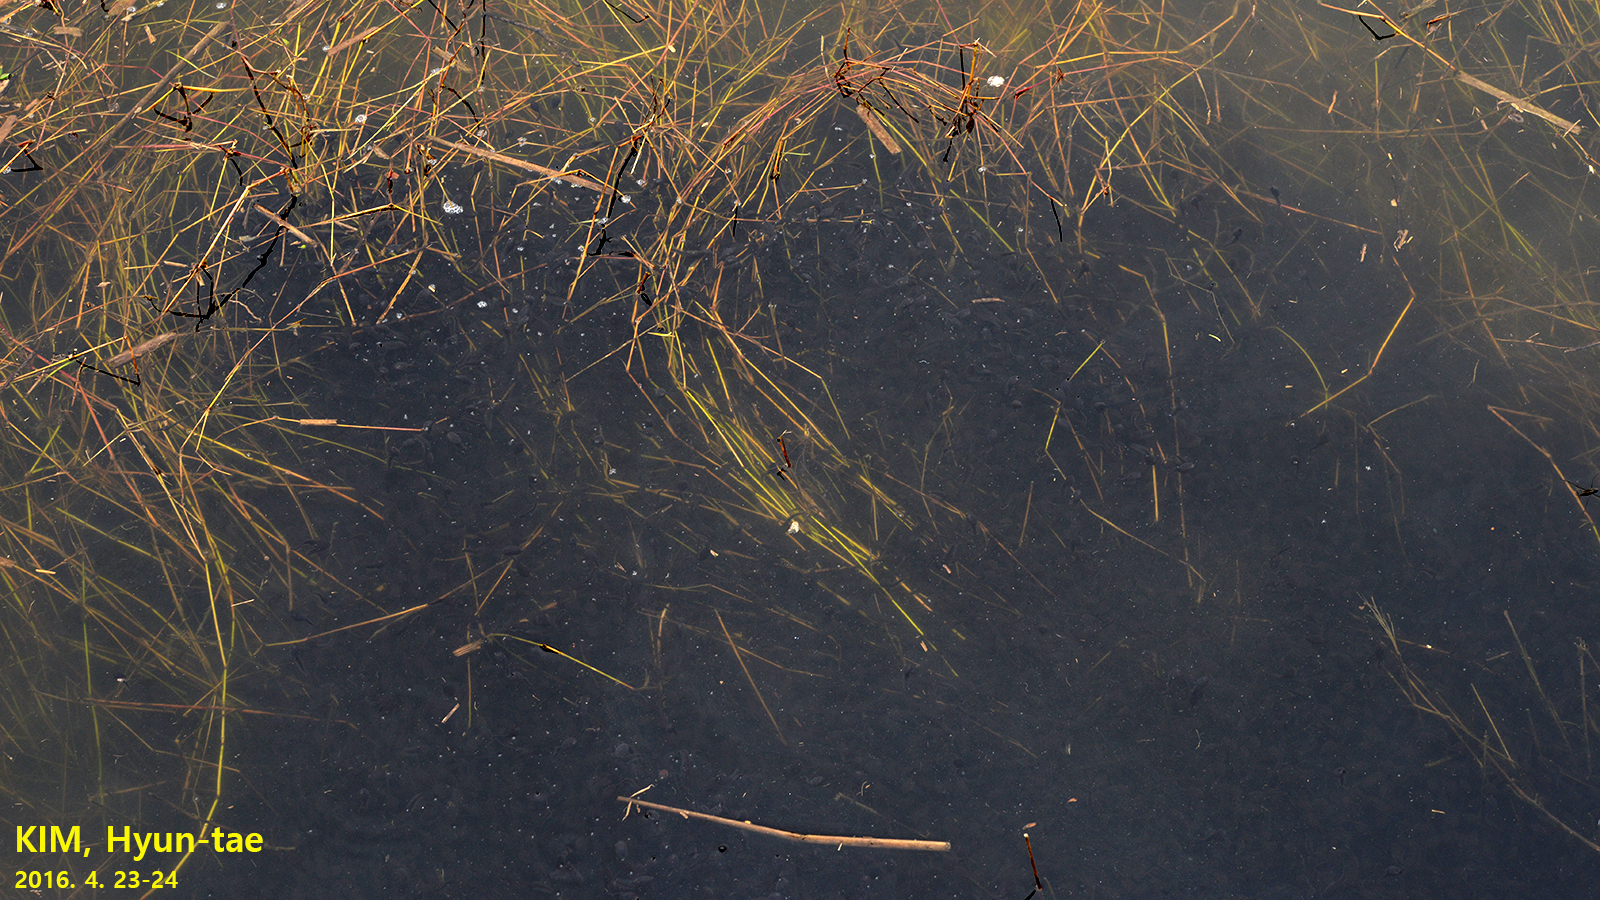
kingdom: Animalia
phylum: Chordata
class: Amphibia
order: Anura
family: Bufonidae
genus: Bufo
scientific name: Bufo gargarizans
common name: Asiatic toad
